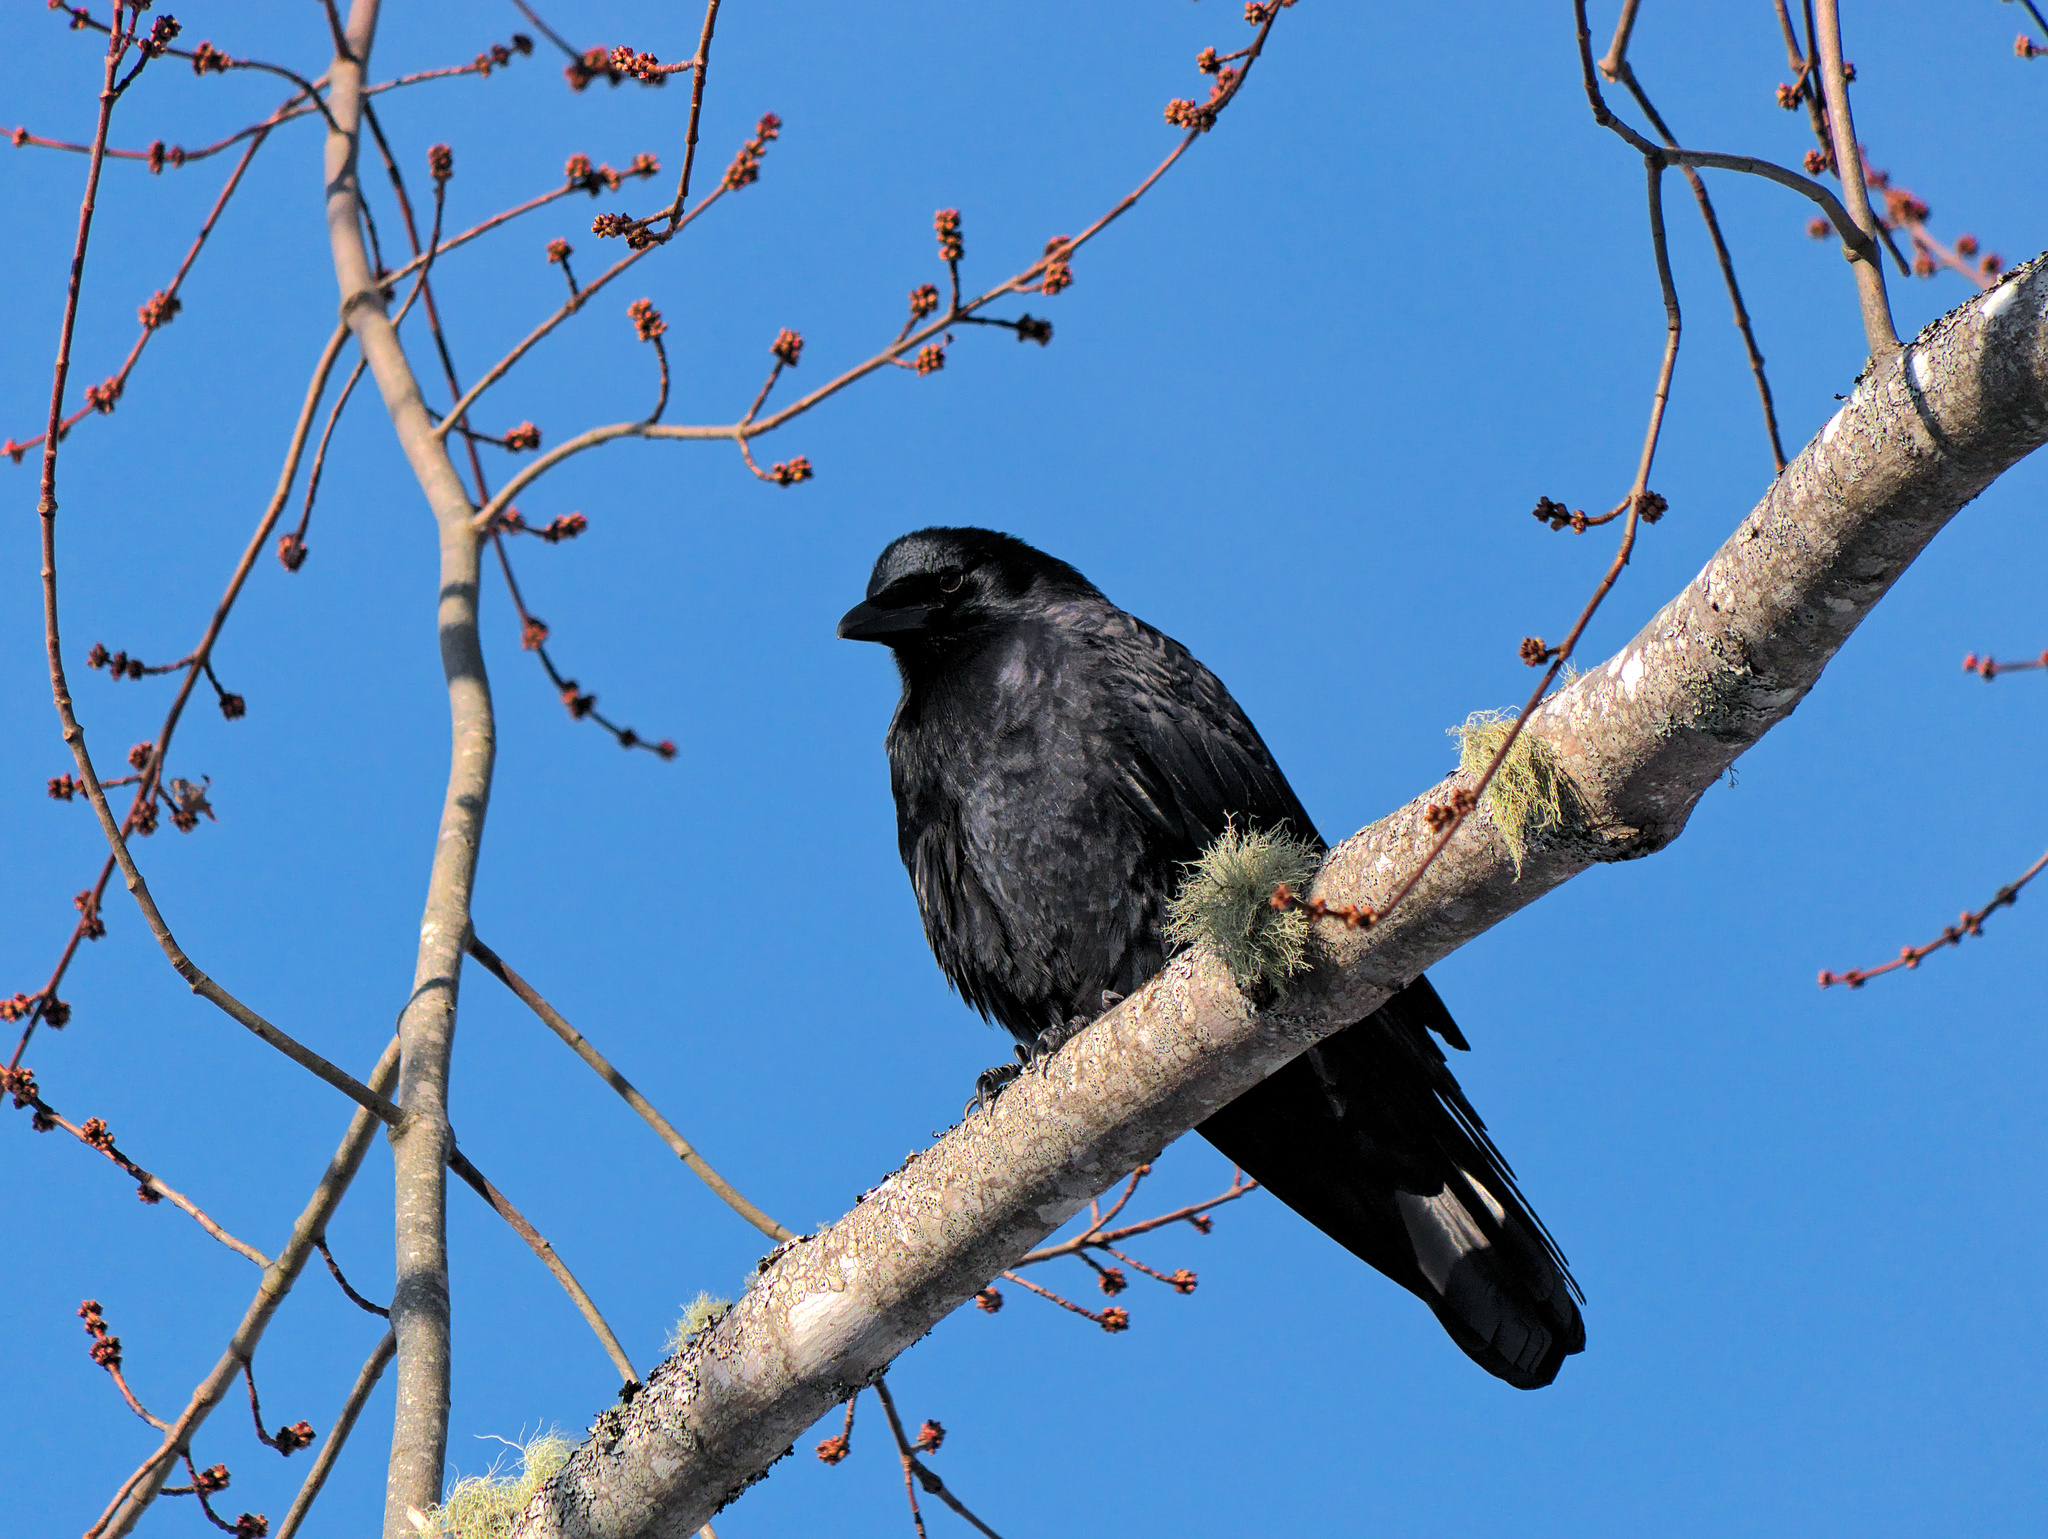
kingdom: Animalia
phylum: Chordata
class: Aves
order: Passeriformes
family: Corvidae
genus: Corvus
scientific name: Corvus brachyrhynchos
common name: American crow
